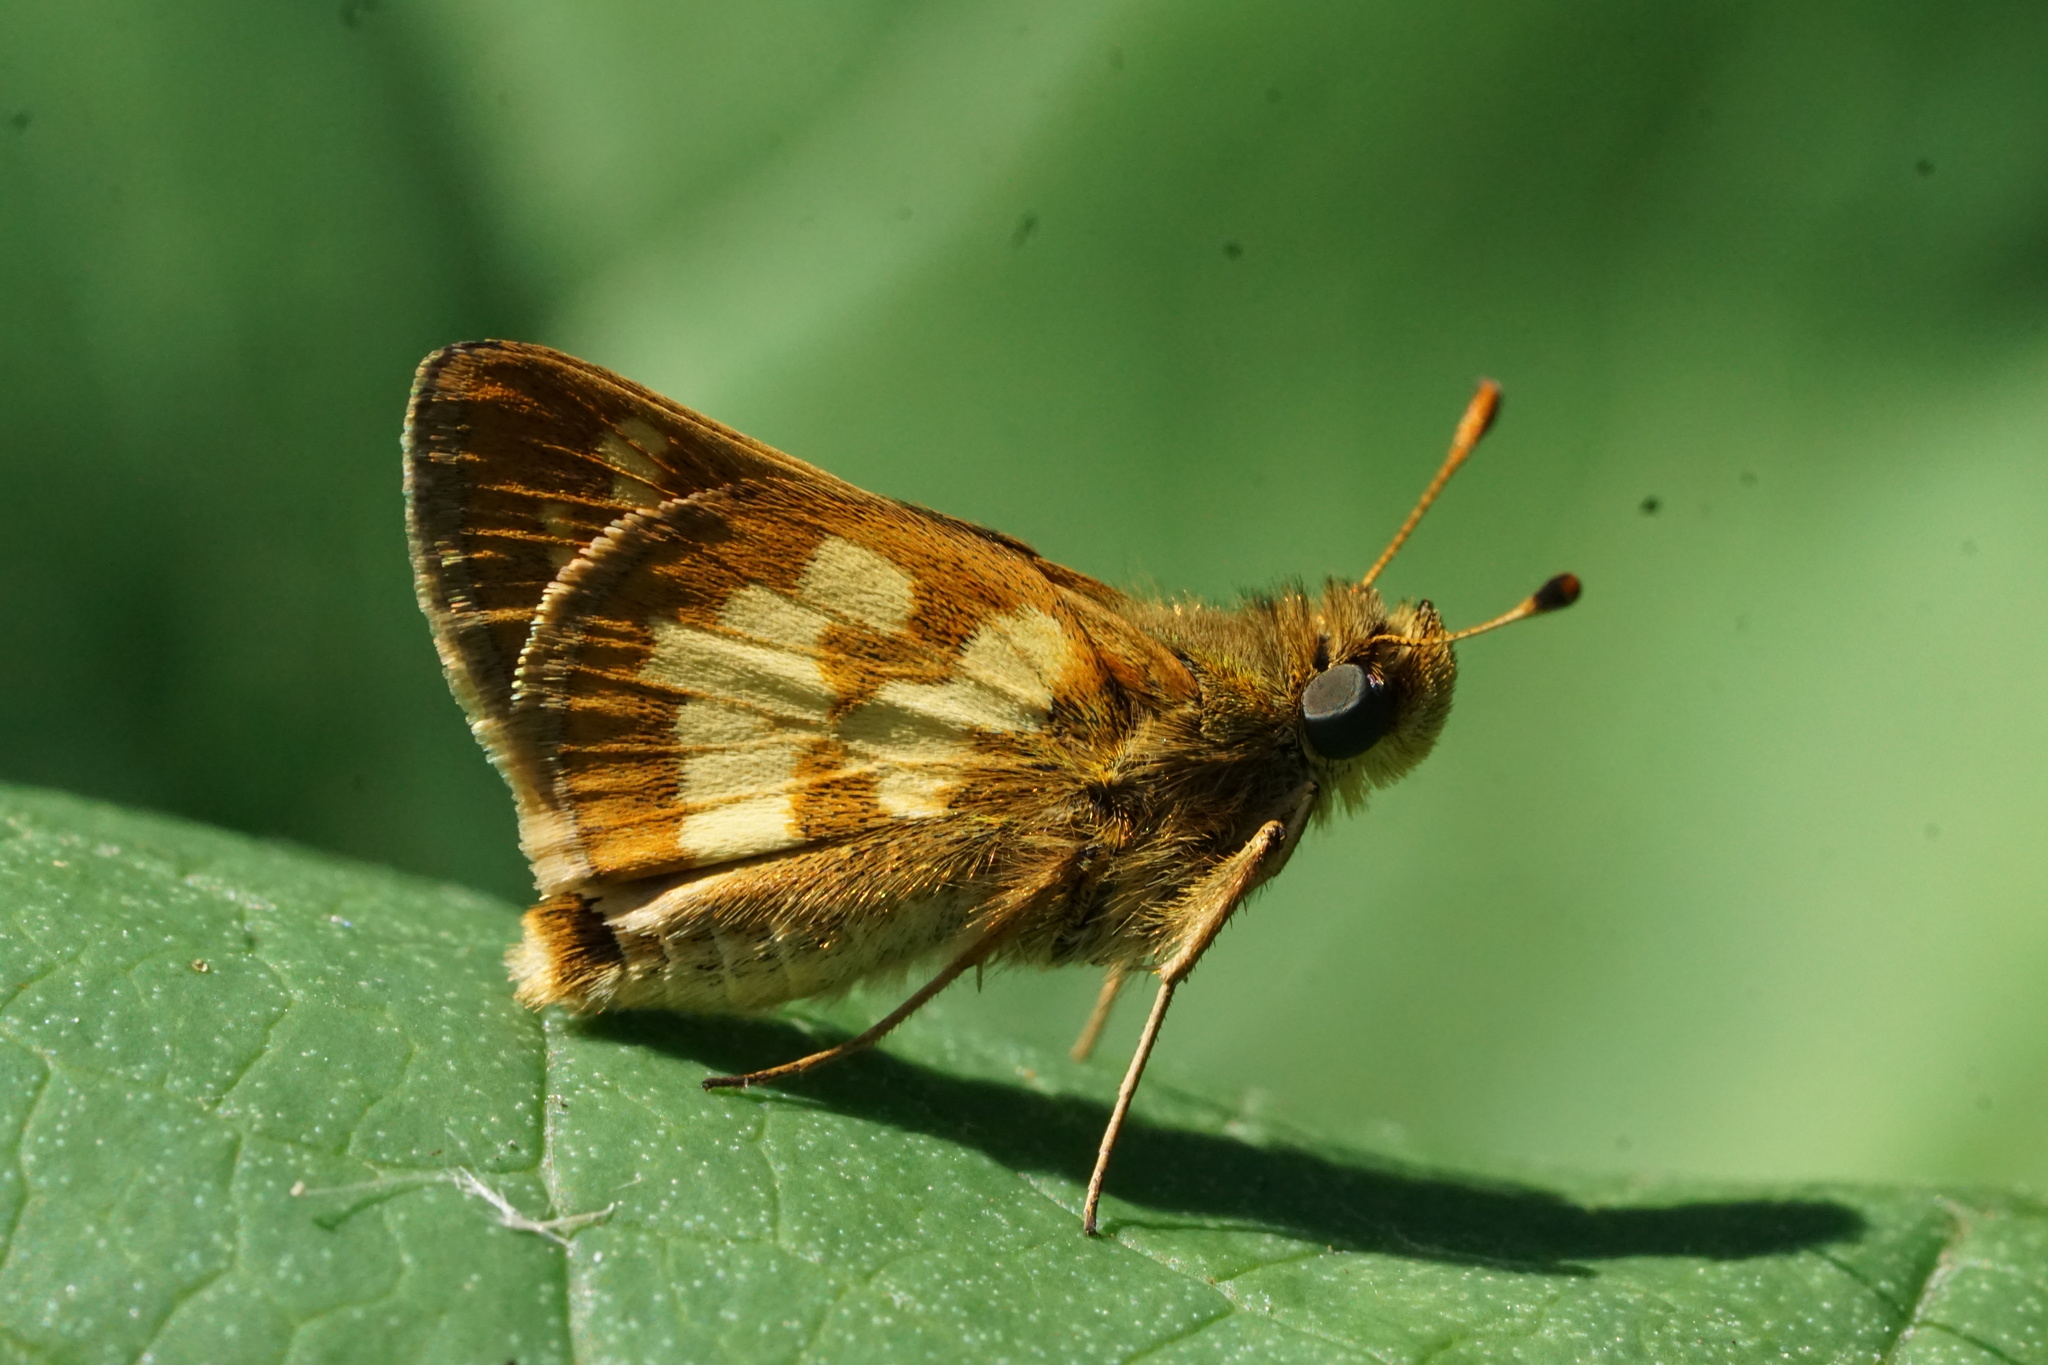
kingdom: Animalia
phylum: Arthropoda
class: Insecta
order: Lepidoptera
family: Hesperiidae
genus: Polites
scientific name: Polites coras
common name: Peck's skipper
